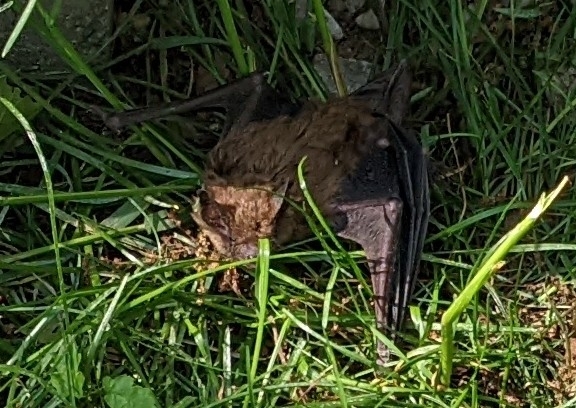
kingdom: Animalia
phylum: Chordata
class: Mammalia
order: Chiroptera
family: Vespertilionidae
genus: Eptesicus
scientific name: Eptesicus fuscus
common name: Big brown bat
